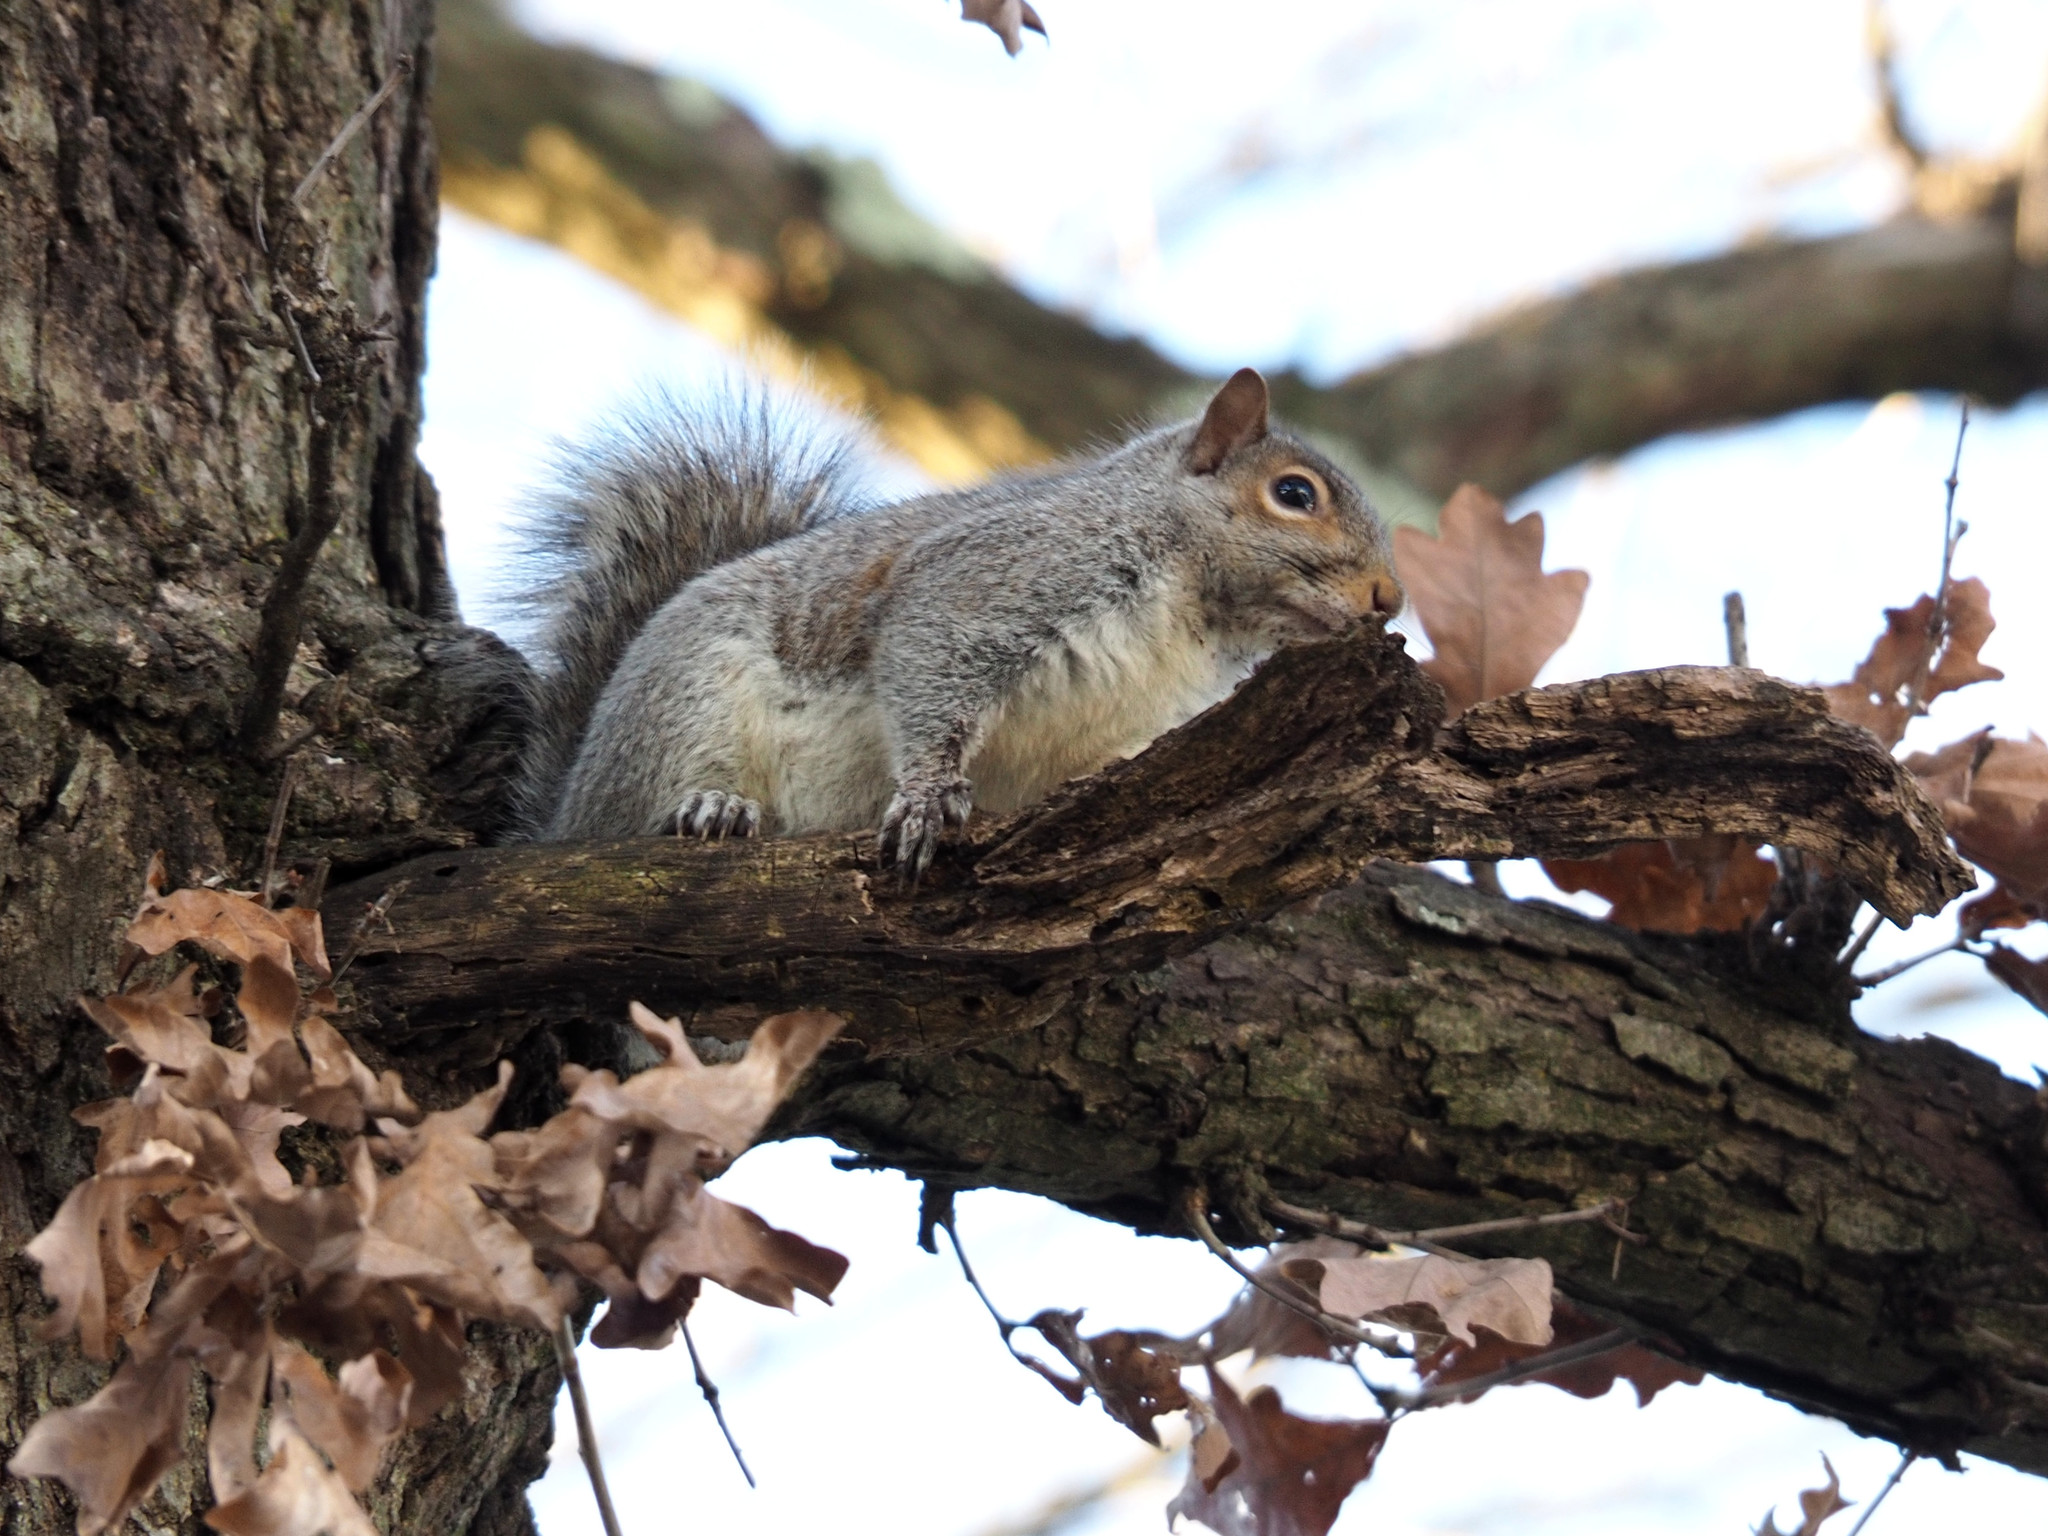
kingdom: Animalia
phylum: Chordata
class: Mammalia
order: Rodentia
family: Sciuridae
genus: Sciurus
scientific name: Sciurus carolinensis
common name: Eastern gray squirrel
